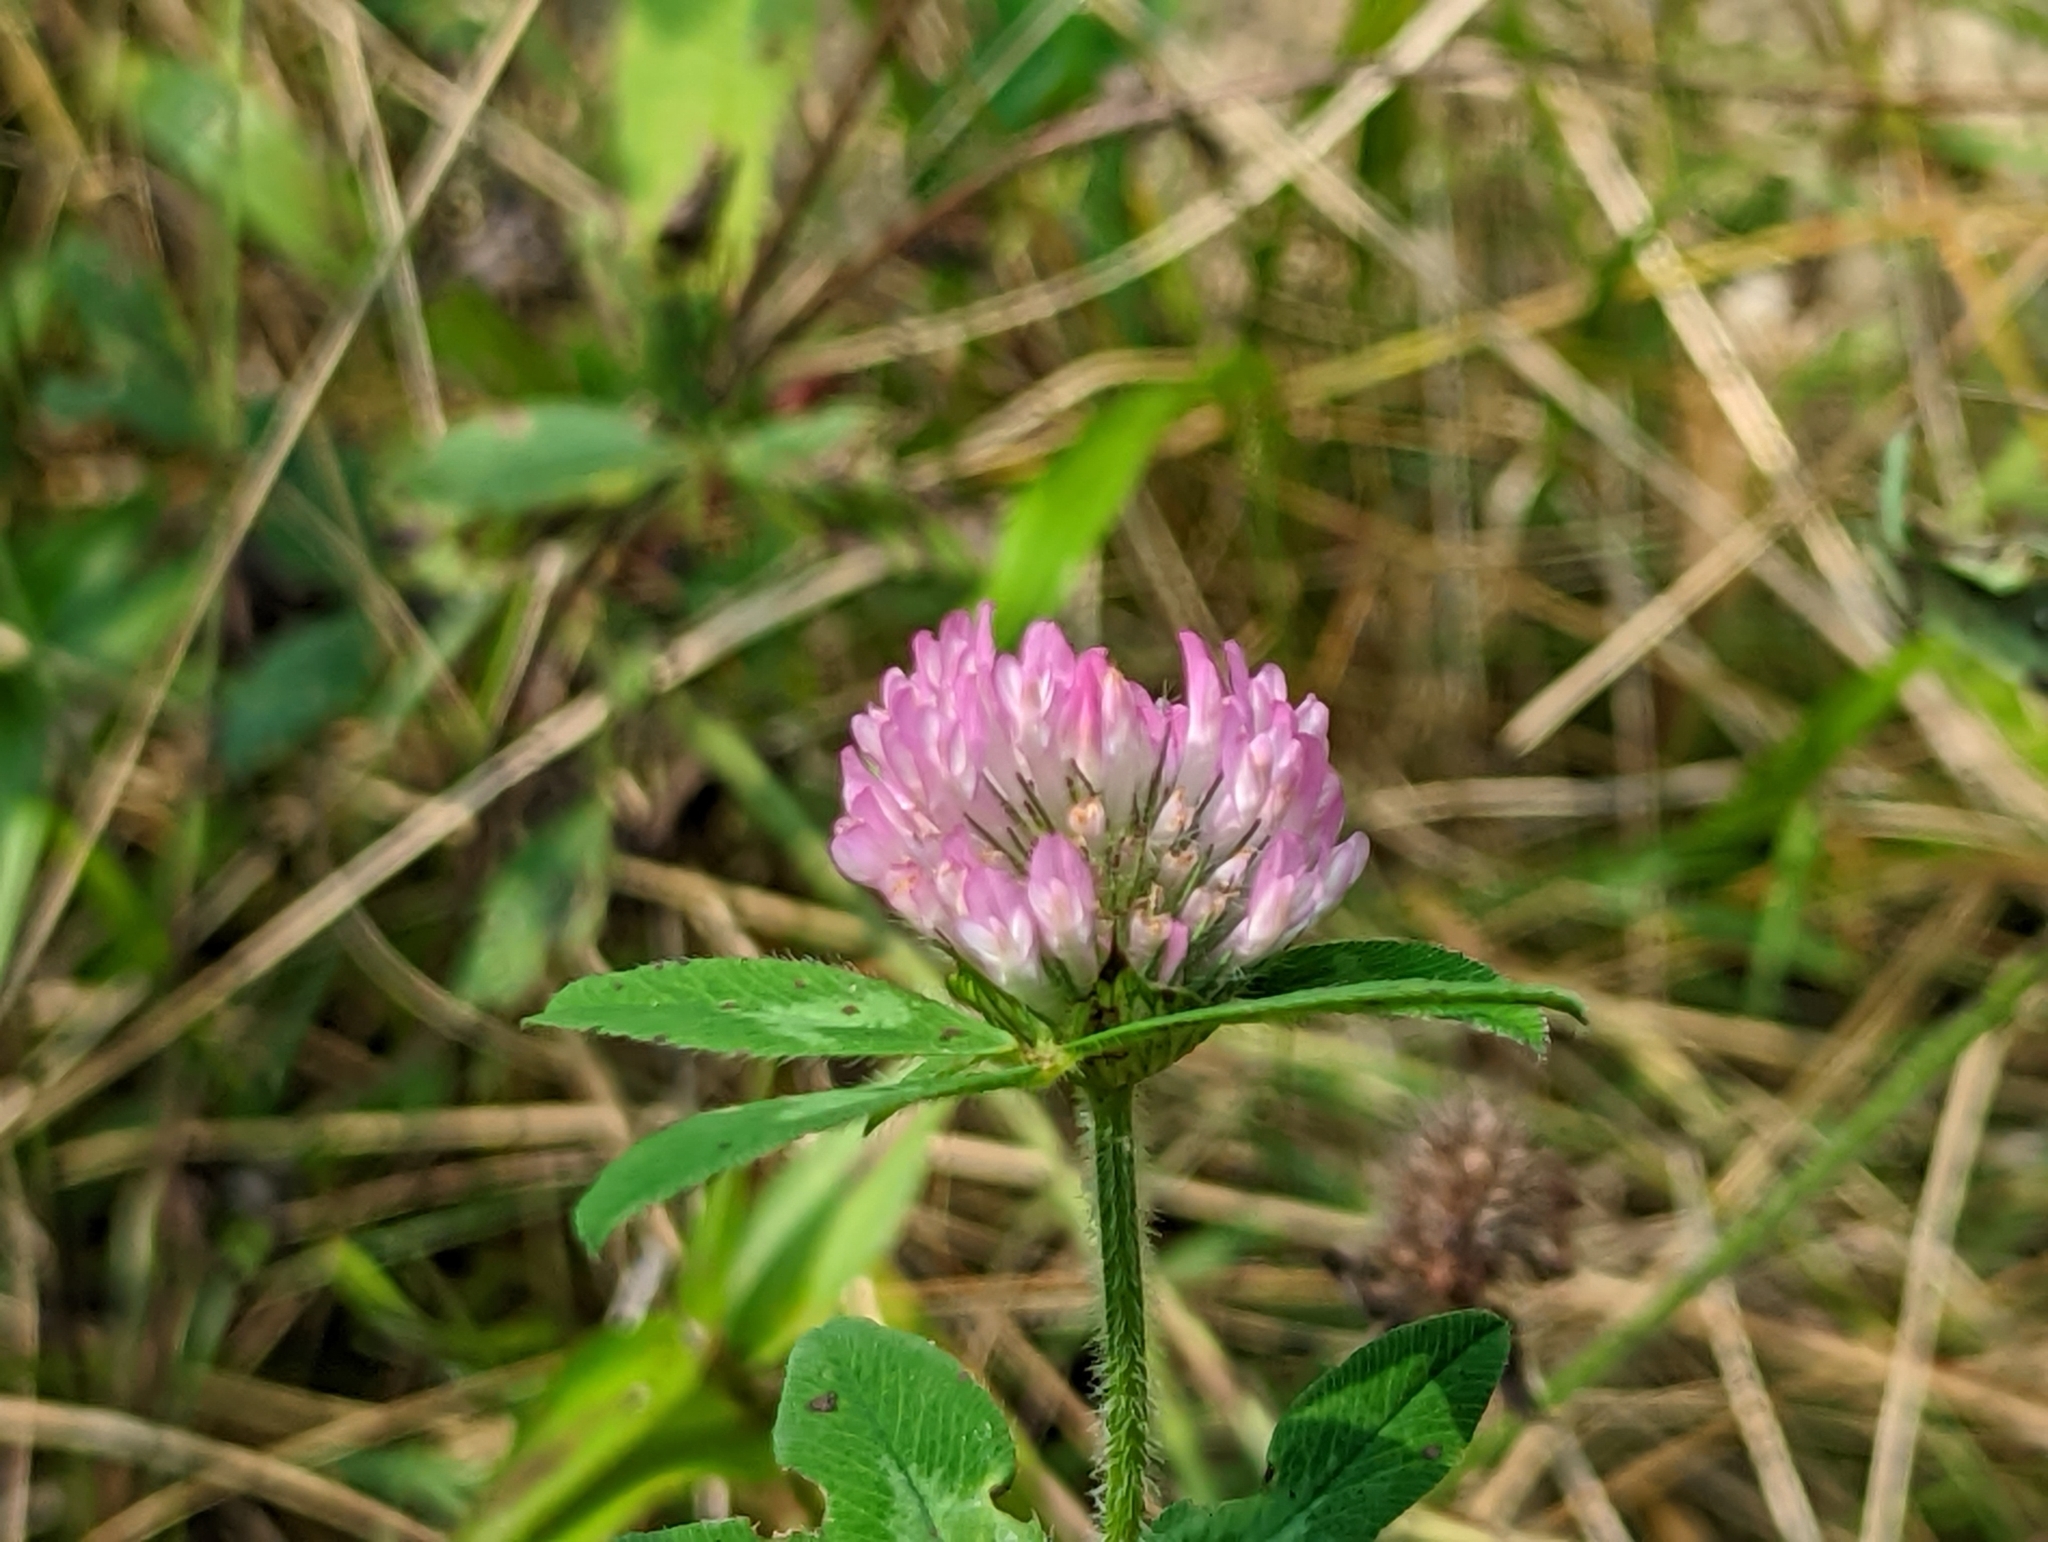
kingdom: Plantae
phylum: Tracheophyta
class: Magnoliopsida
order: Fabales
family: Fabaceae
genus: Trifolium
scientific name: Trifolium pratense
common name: Red clover
